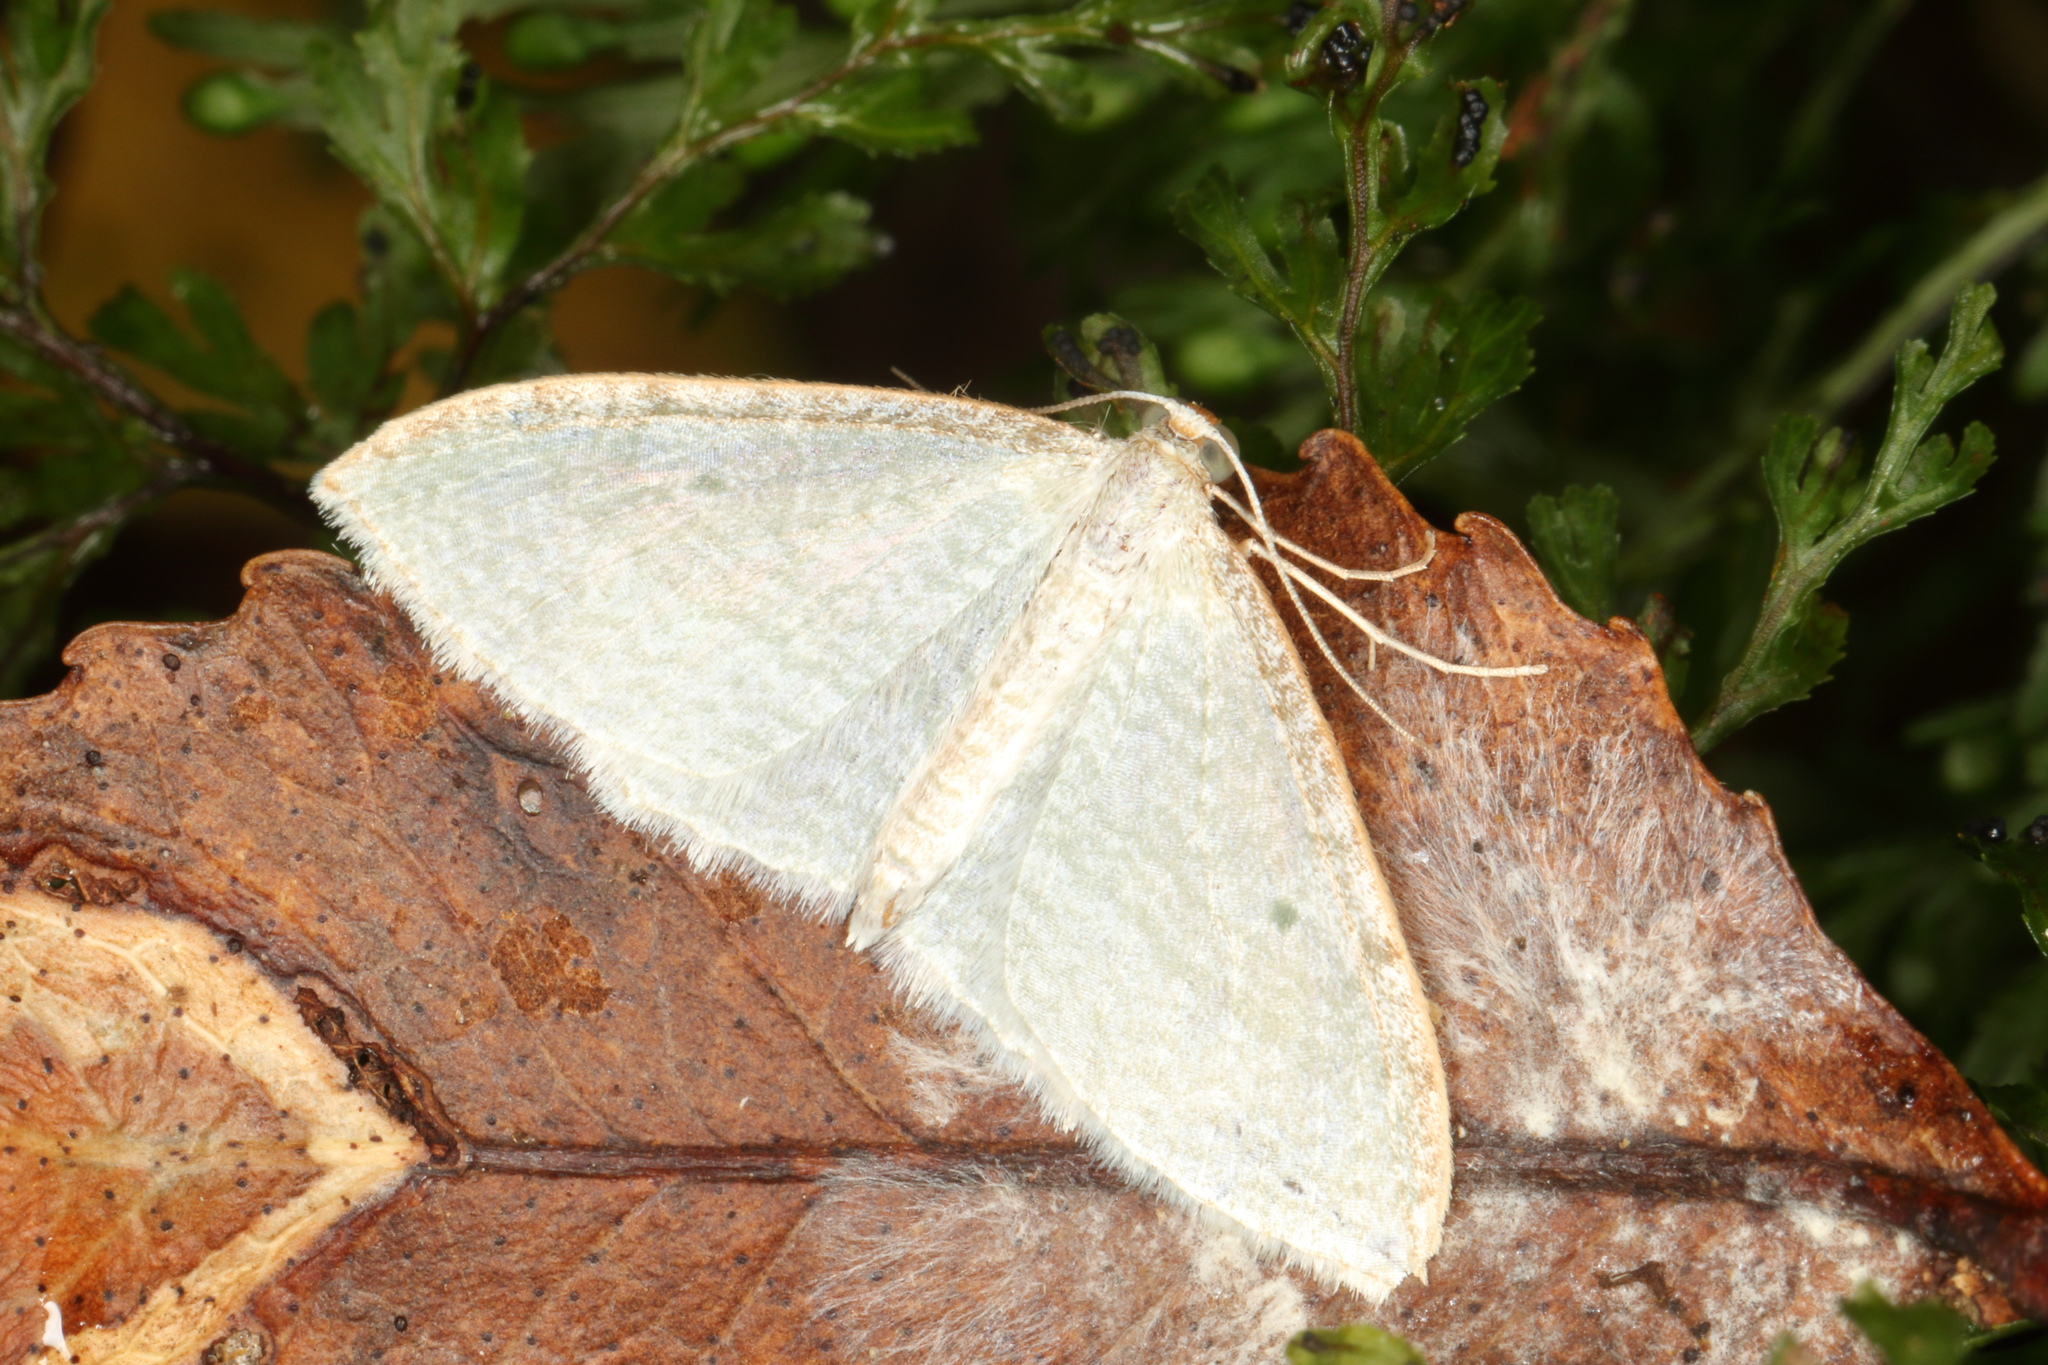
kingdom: Animalia
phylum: Arthropoda
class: Insecta
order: Lepidoptera
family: Geometridae
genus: Poecilasthena
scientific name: Poecilasthena pulchraria
